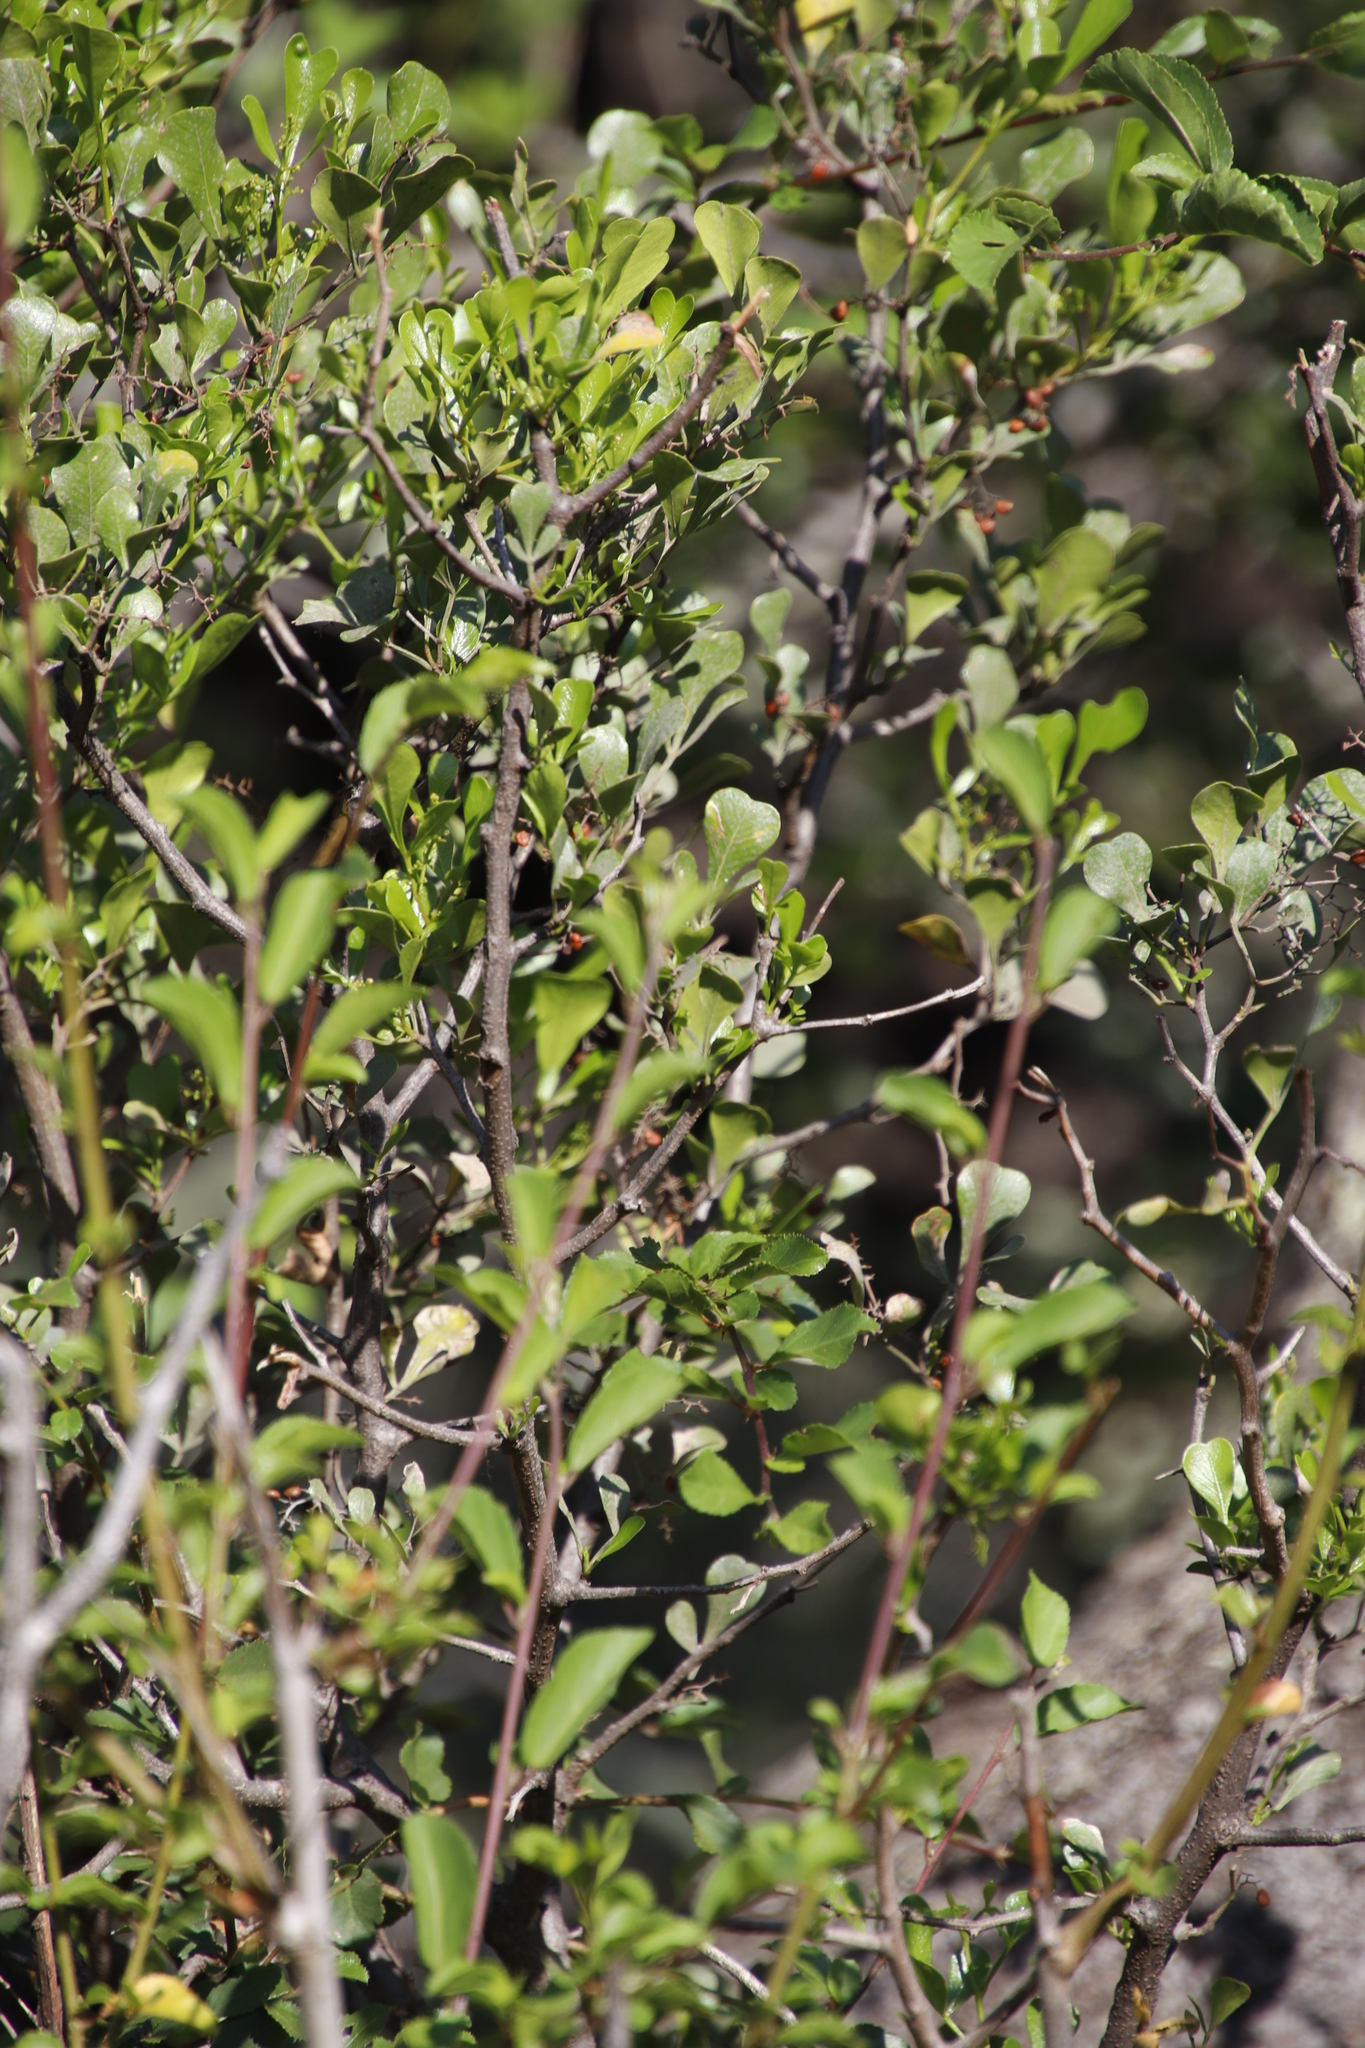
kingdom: Plantae
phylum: Tracheophyta
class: Magnoliopsida
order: Sapindales
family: Anacardiaceae
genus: Searsia
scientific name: Searsia pallens
